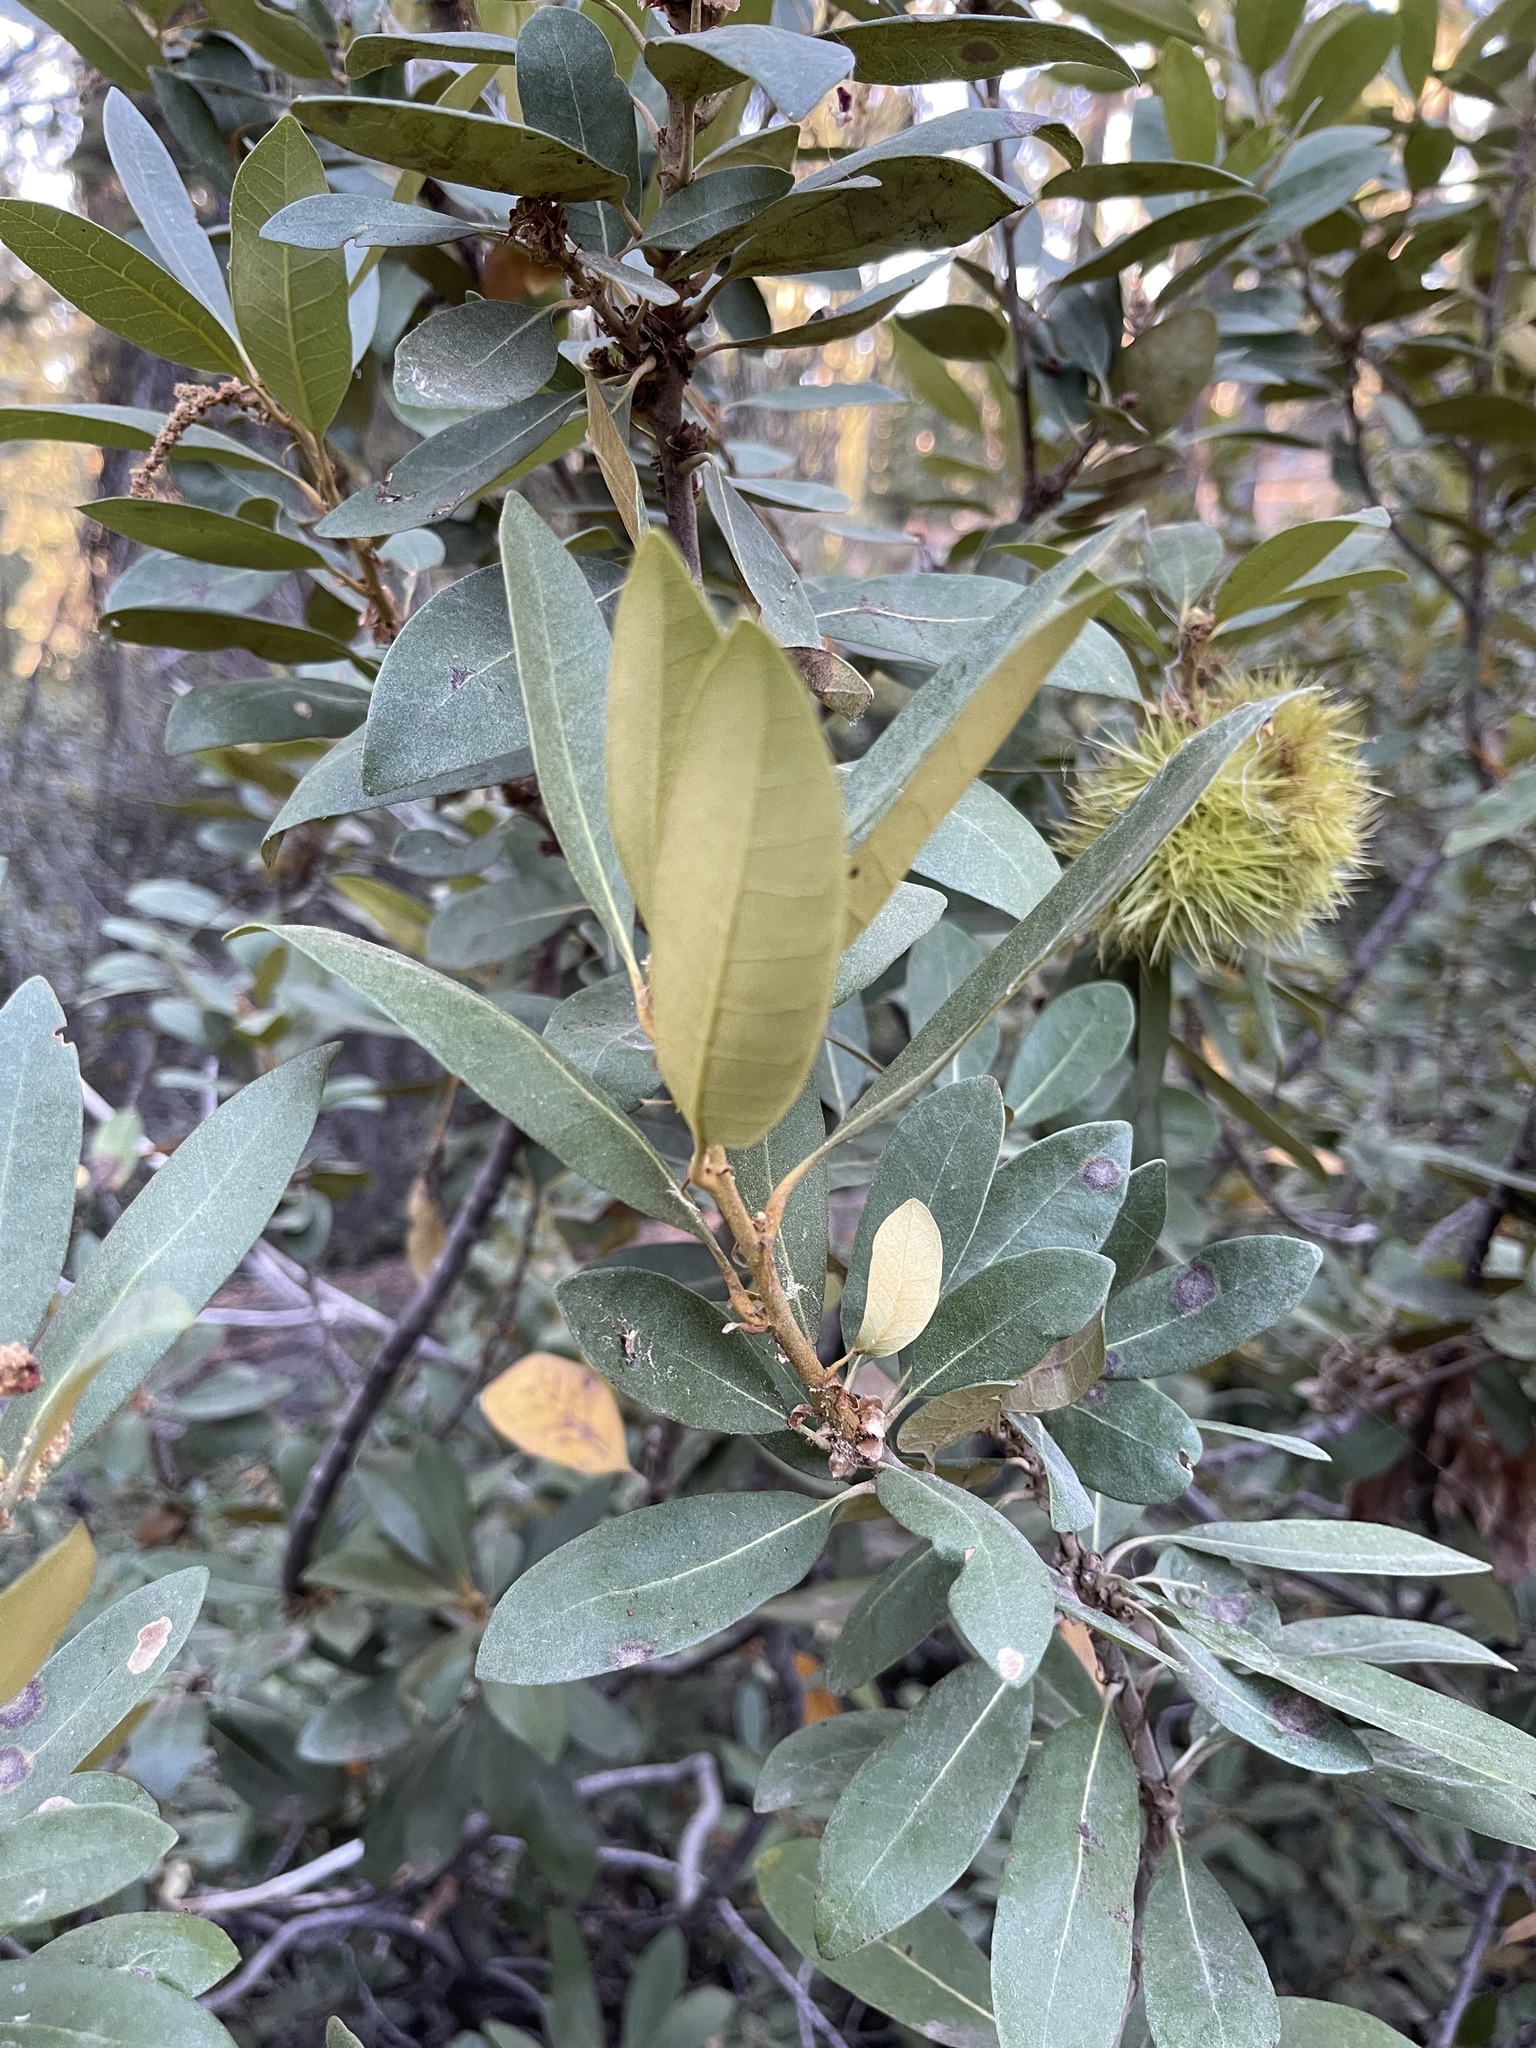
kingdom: Plantae
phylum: Tracheophyta
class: Magnoliopsida
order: Fagales
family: Fagaceae
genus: Chrysolepis
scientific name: Chrysolepis sempervirens
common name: Bush chinquapin
